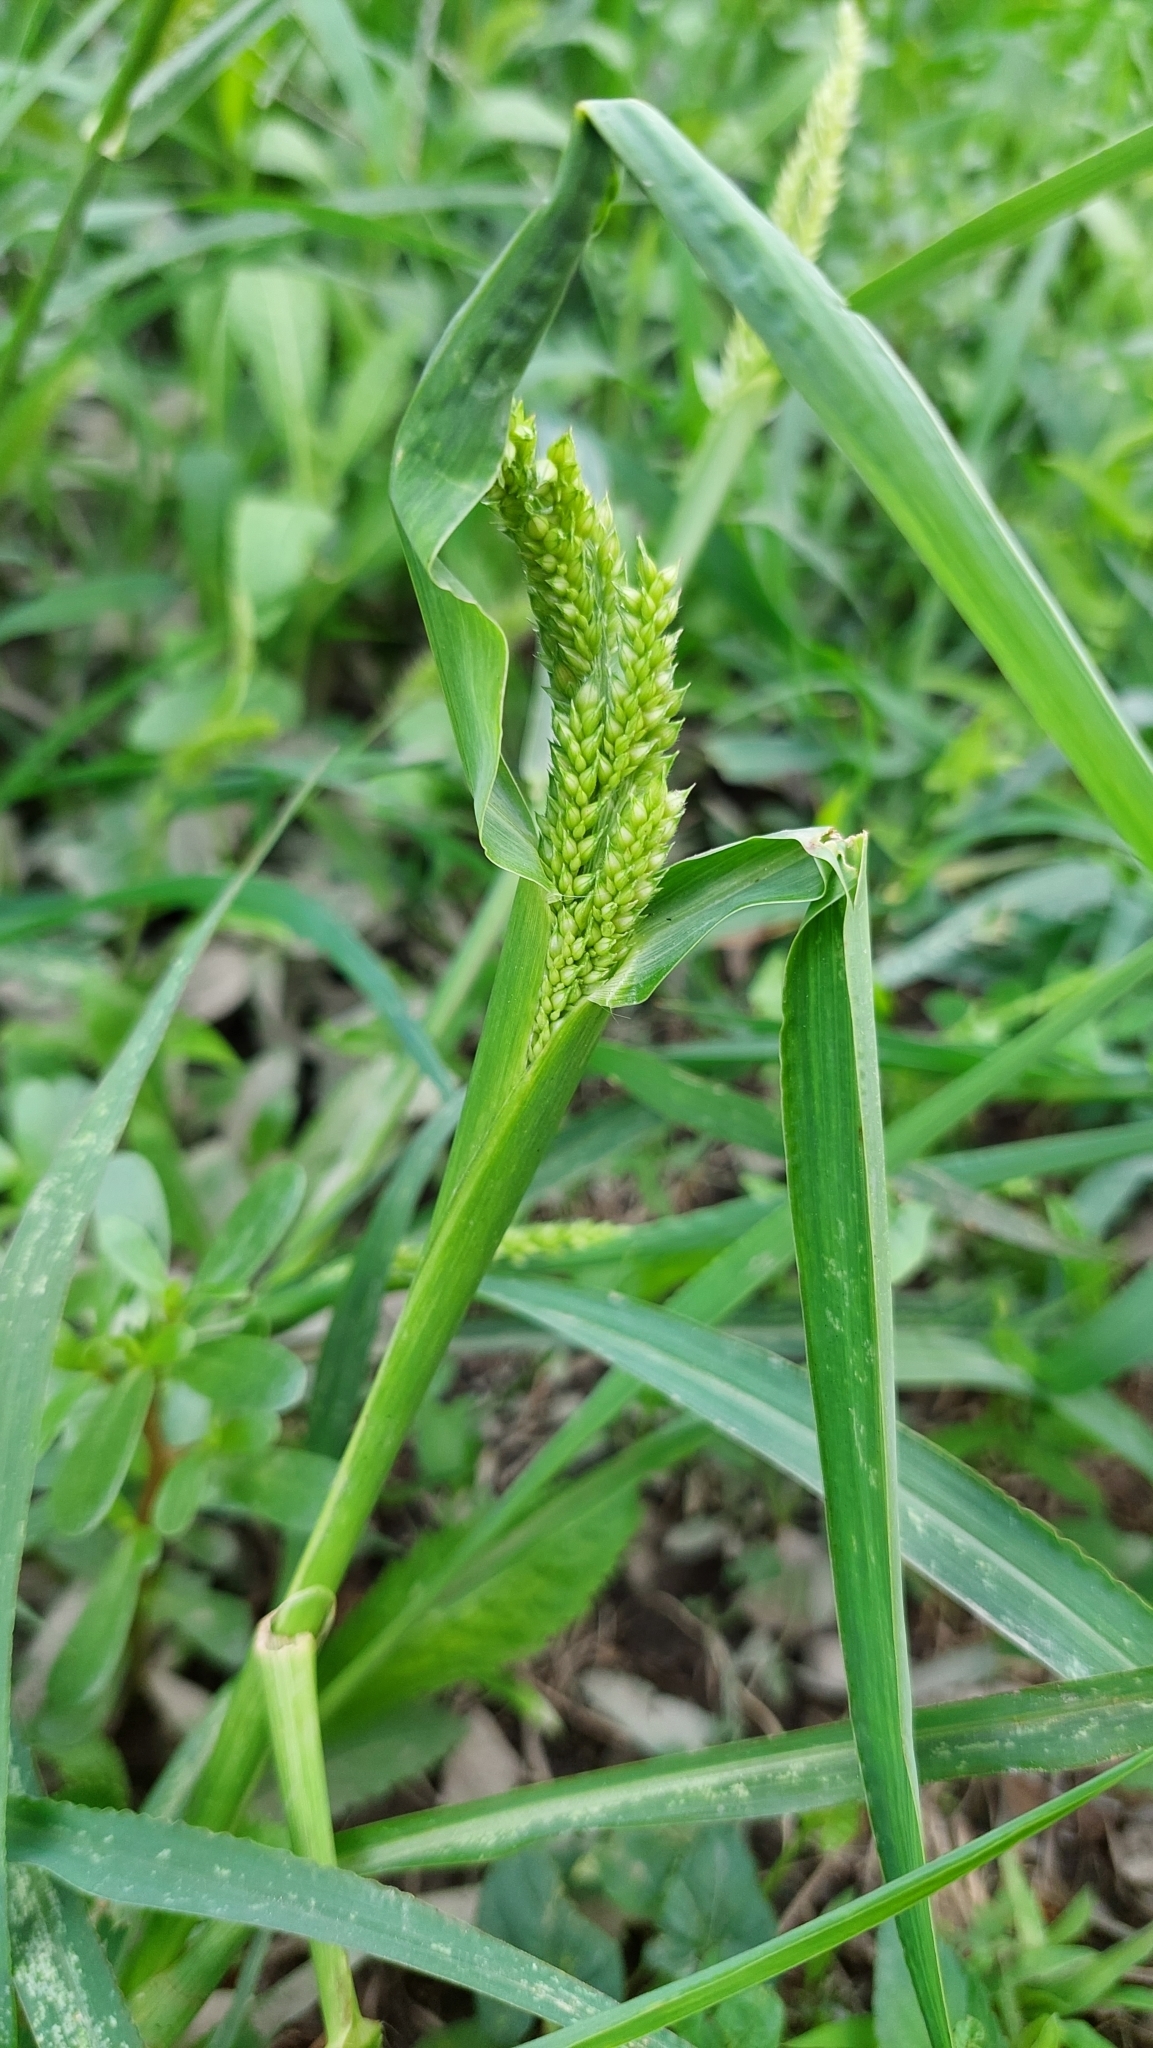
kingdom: Plantae
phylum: Tracheophyta
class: Liliopsida
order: Poales
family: Poaceae
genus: Echinochloa
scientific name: Echinochloa crus-galli
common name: Cockspur
